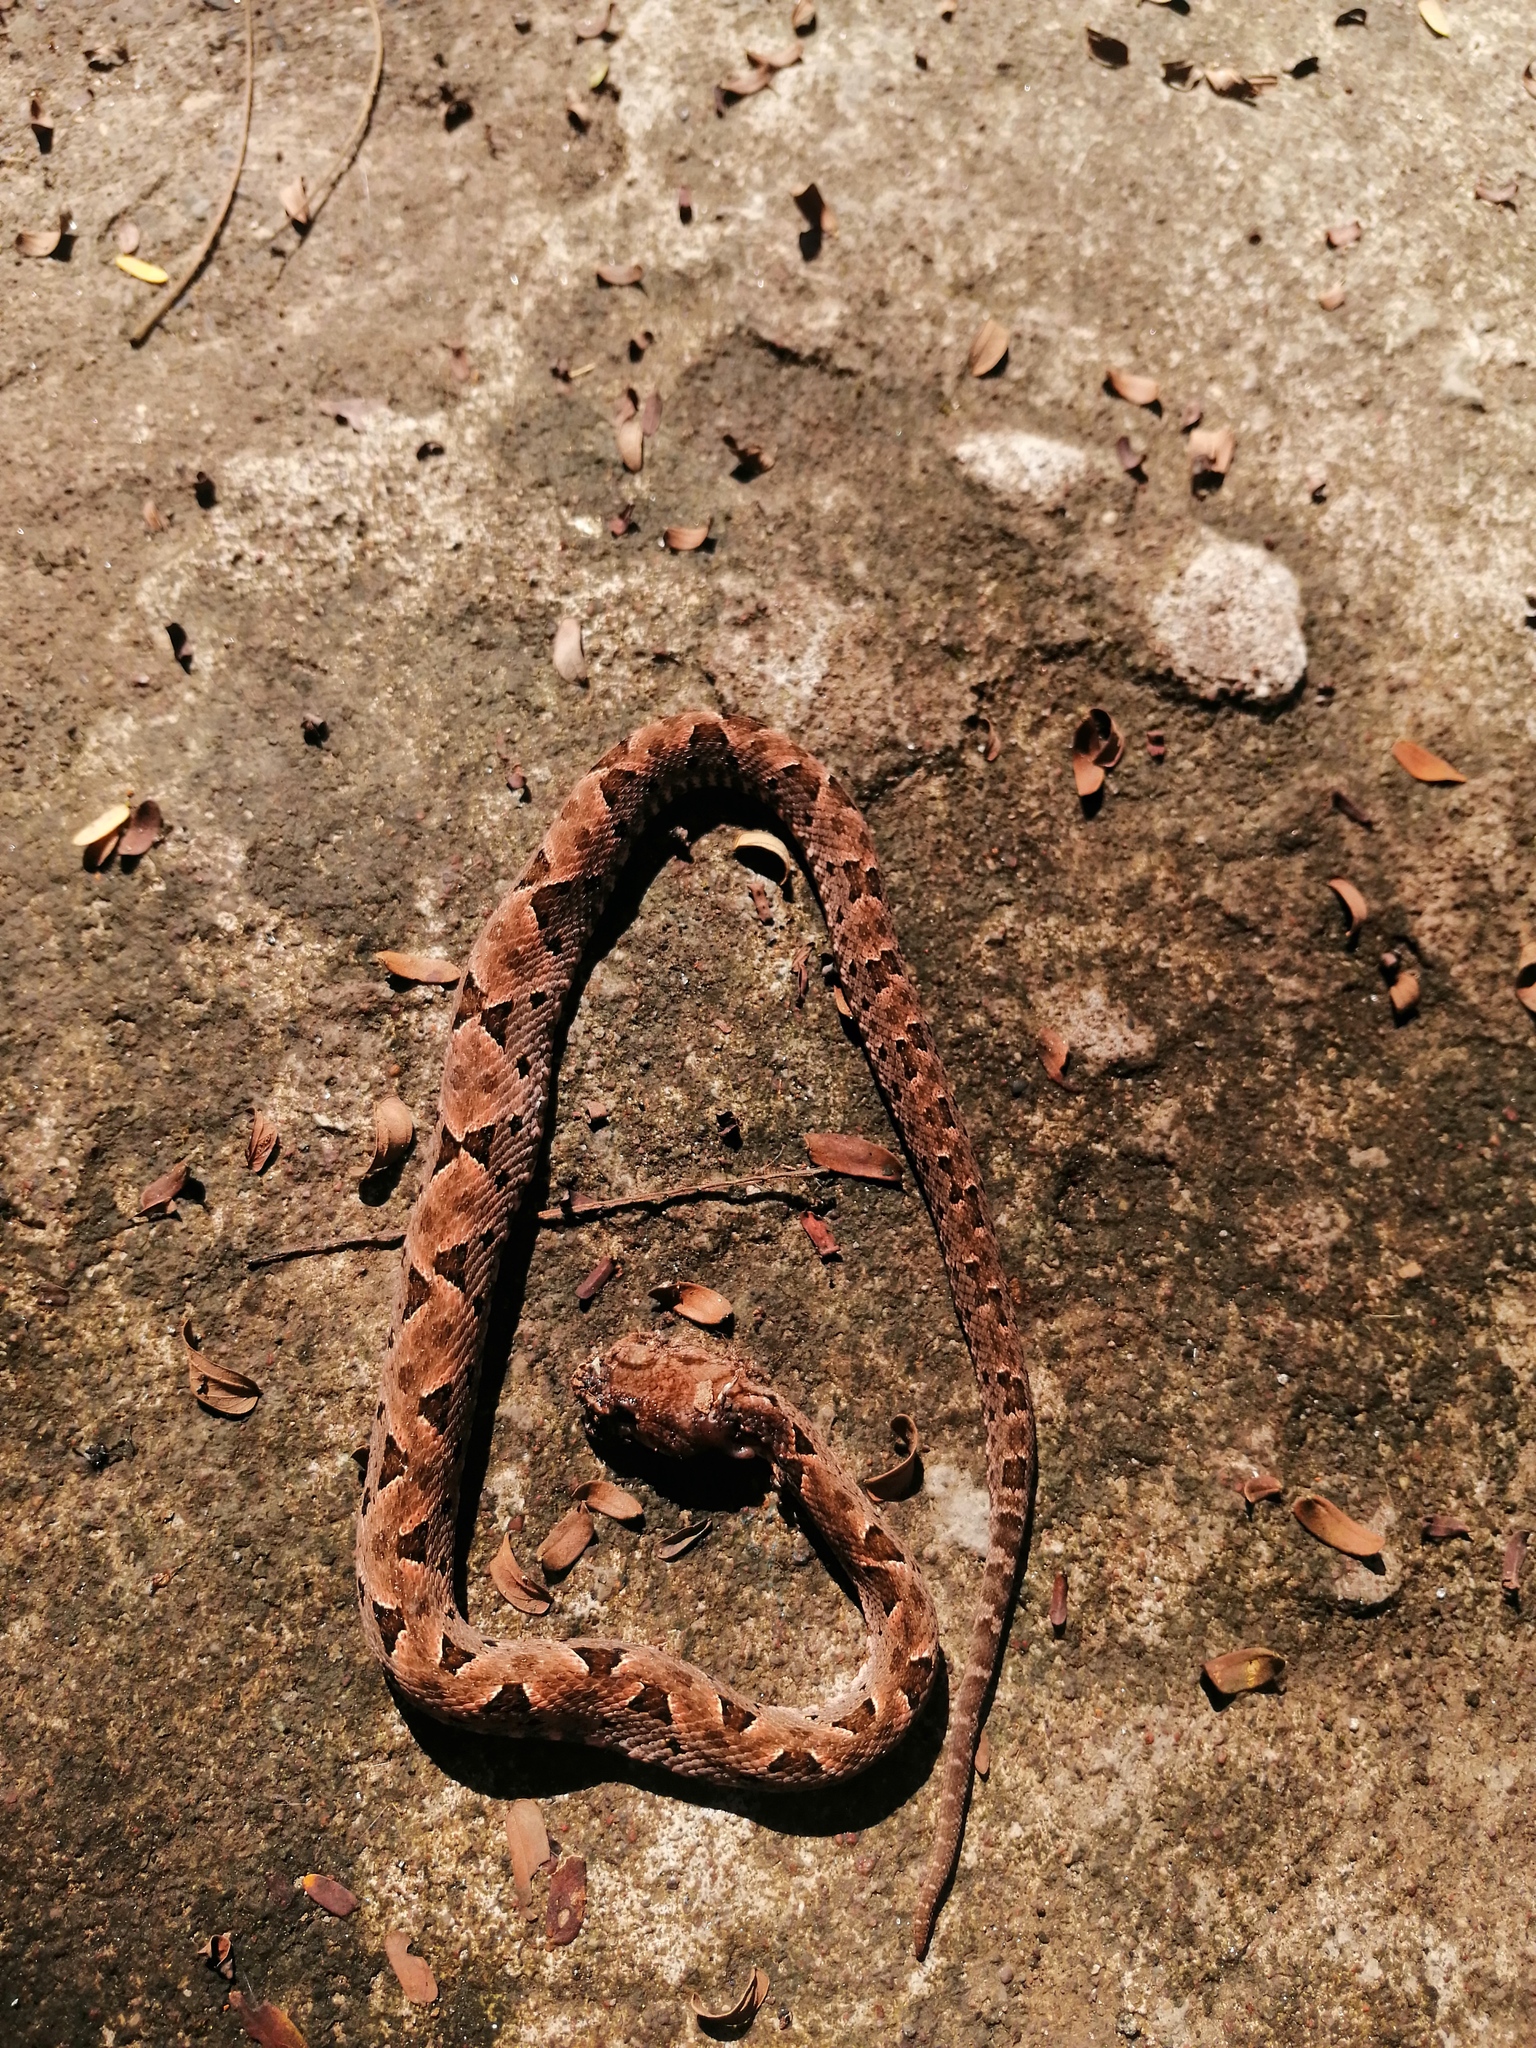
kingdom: Animalia
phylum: Chordata
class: Squamata
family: Viperidae
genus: Bothrops
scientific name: Bothrops asper
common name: Terciopelo
